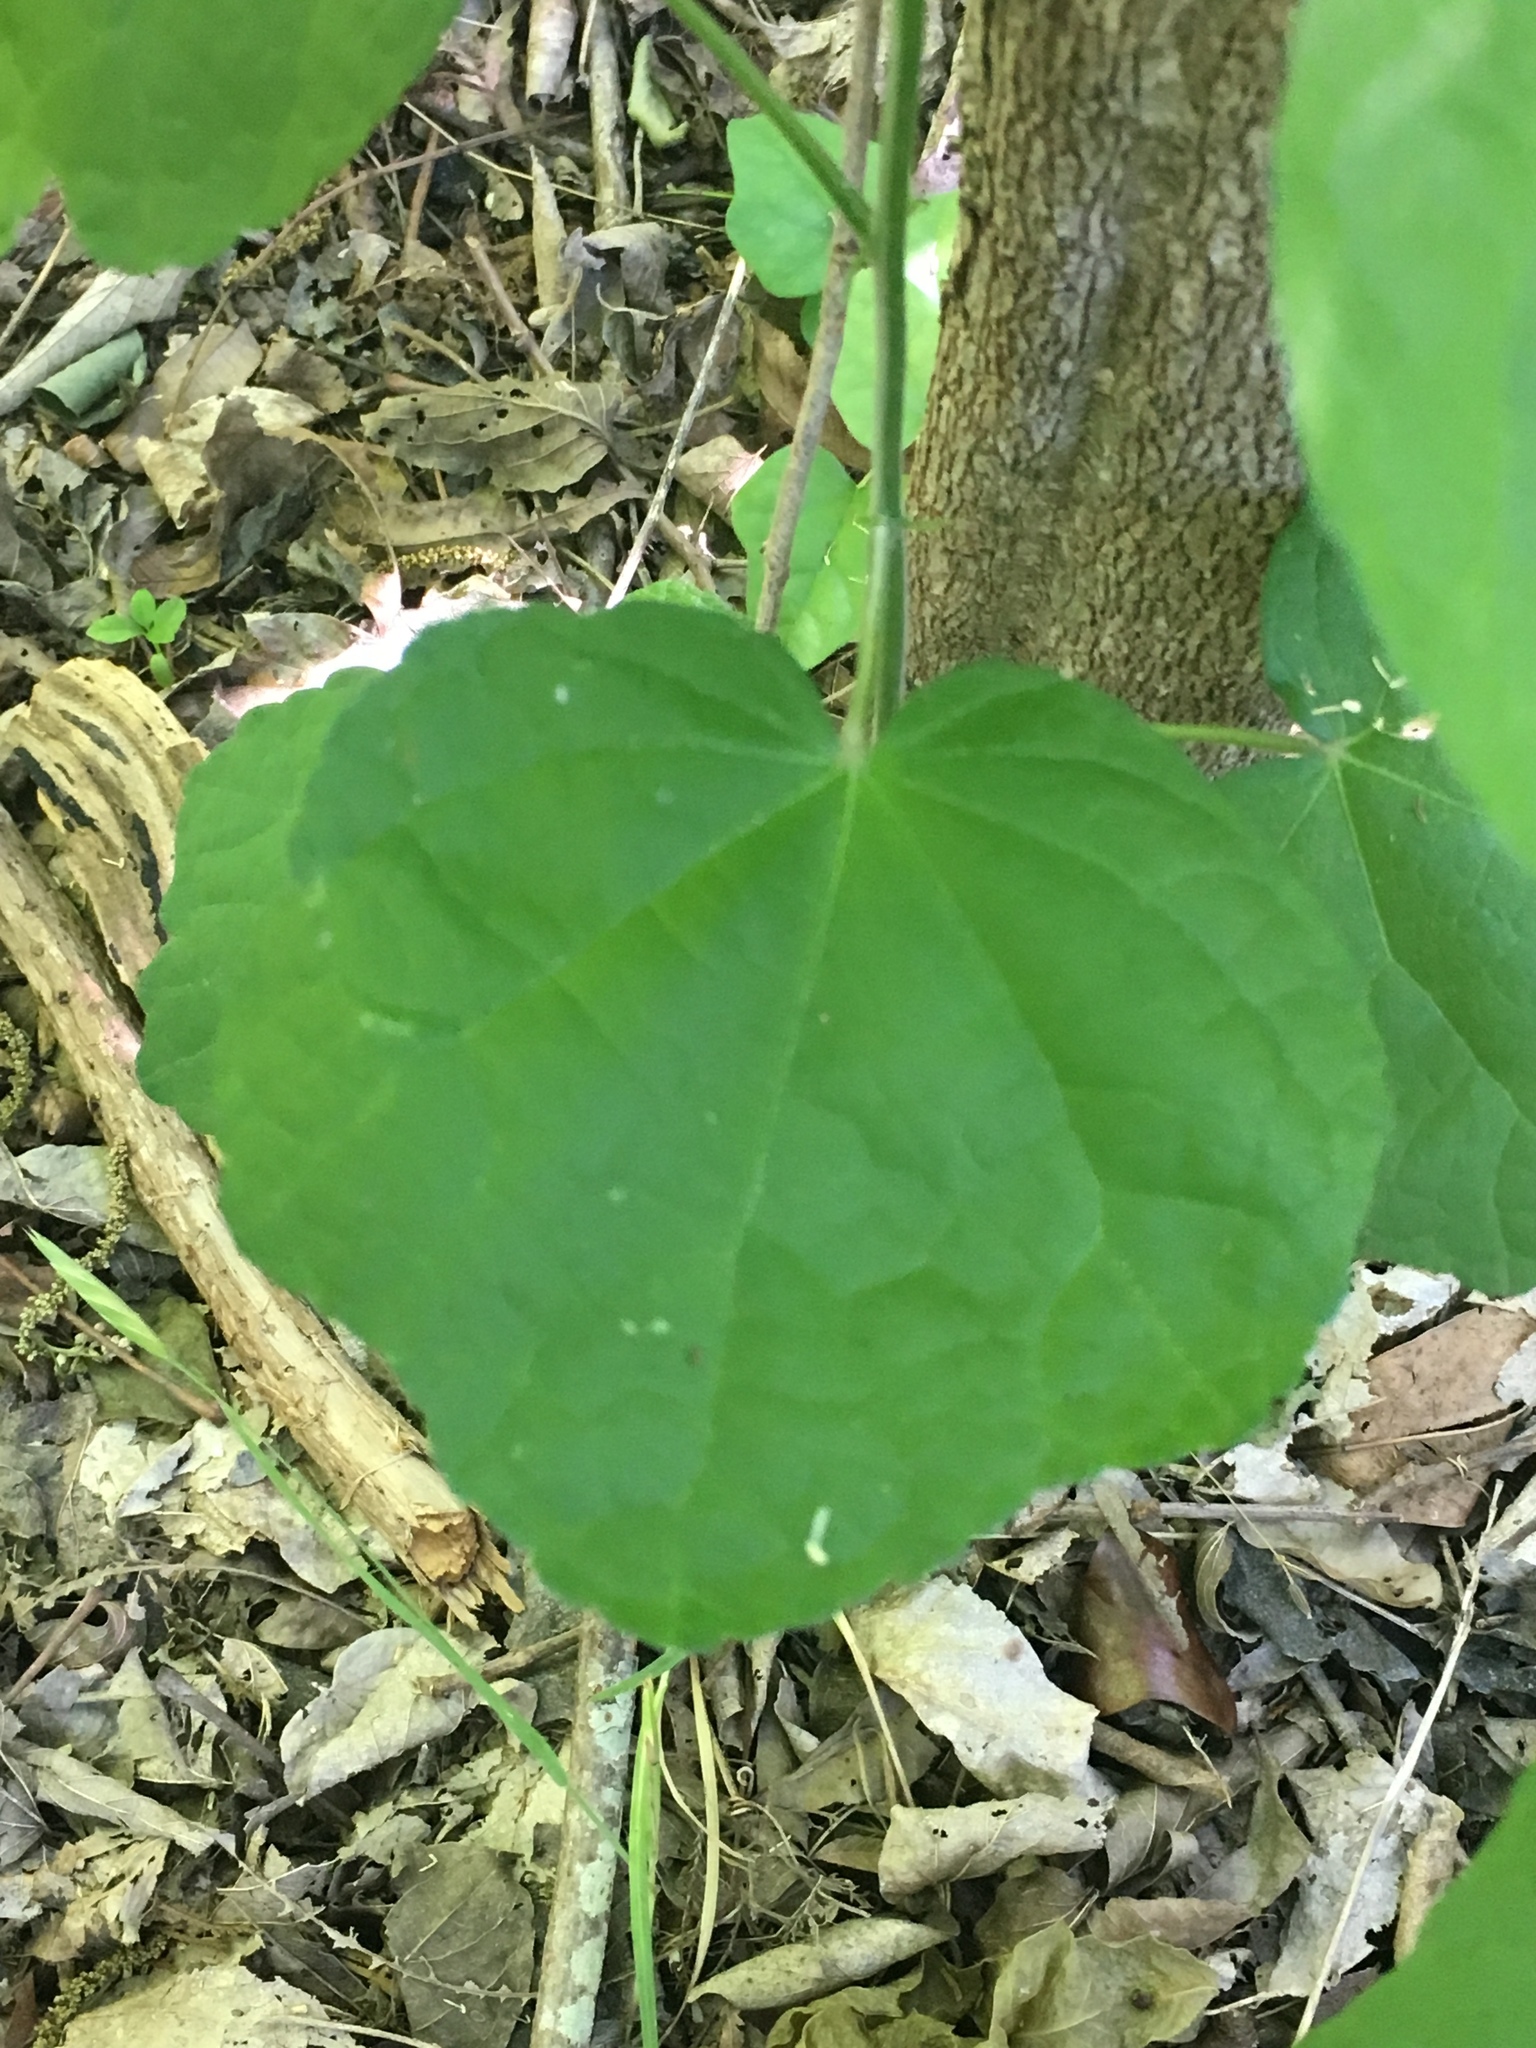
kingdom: Plantae
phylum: Tracheophyta
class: Magnoliopsida
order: Malvales
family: Malvaceae
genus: Malvaviscus
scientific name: Malvaviscus arboreus
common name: Wax mallow
